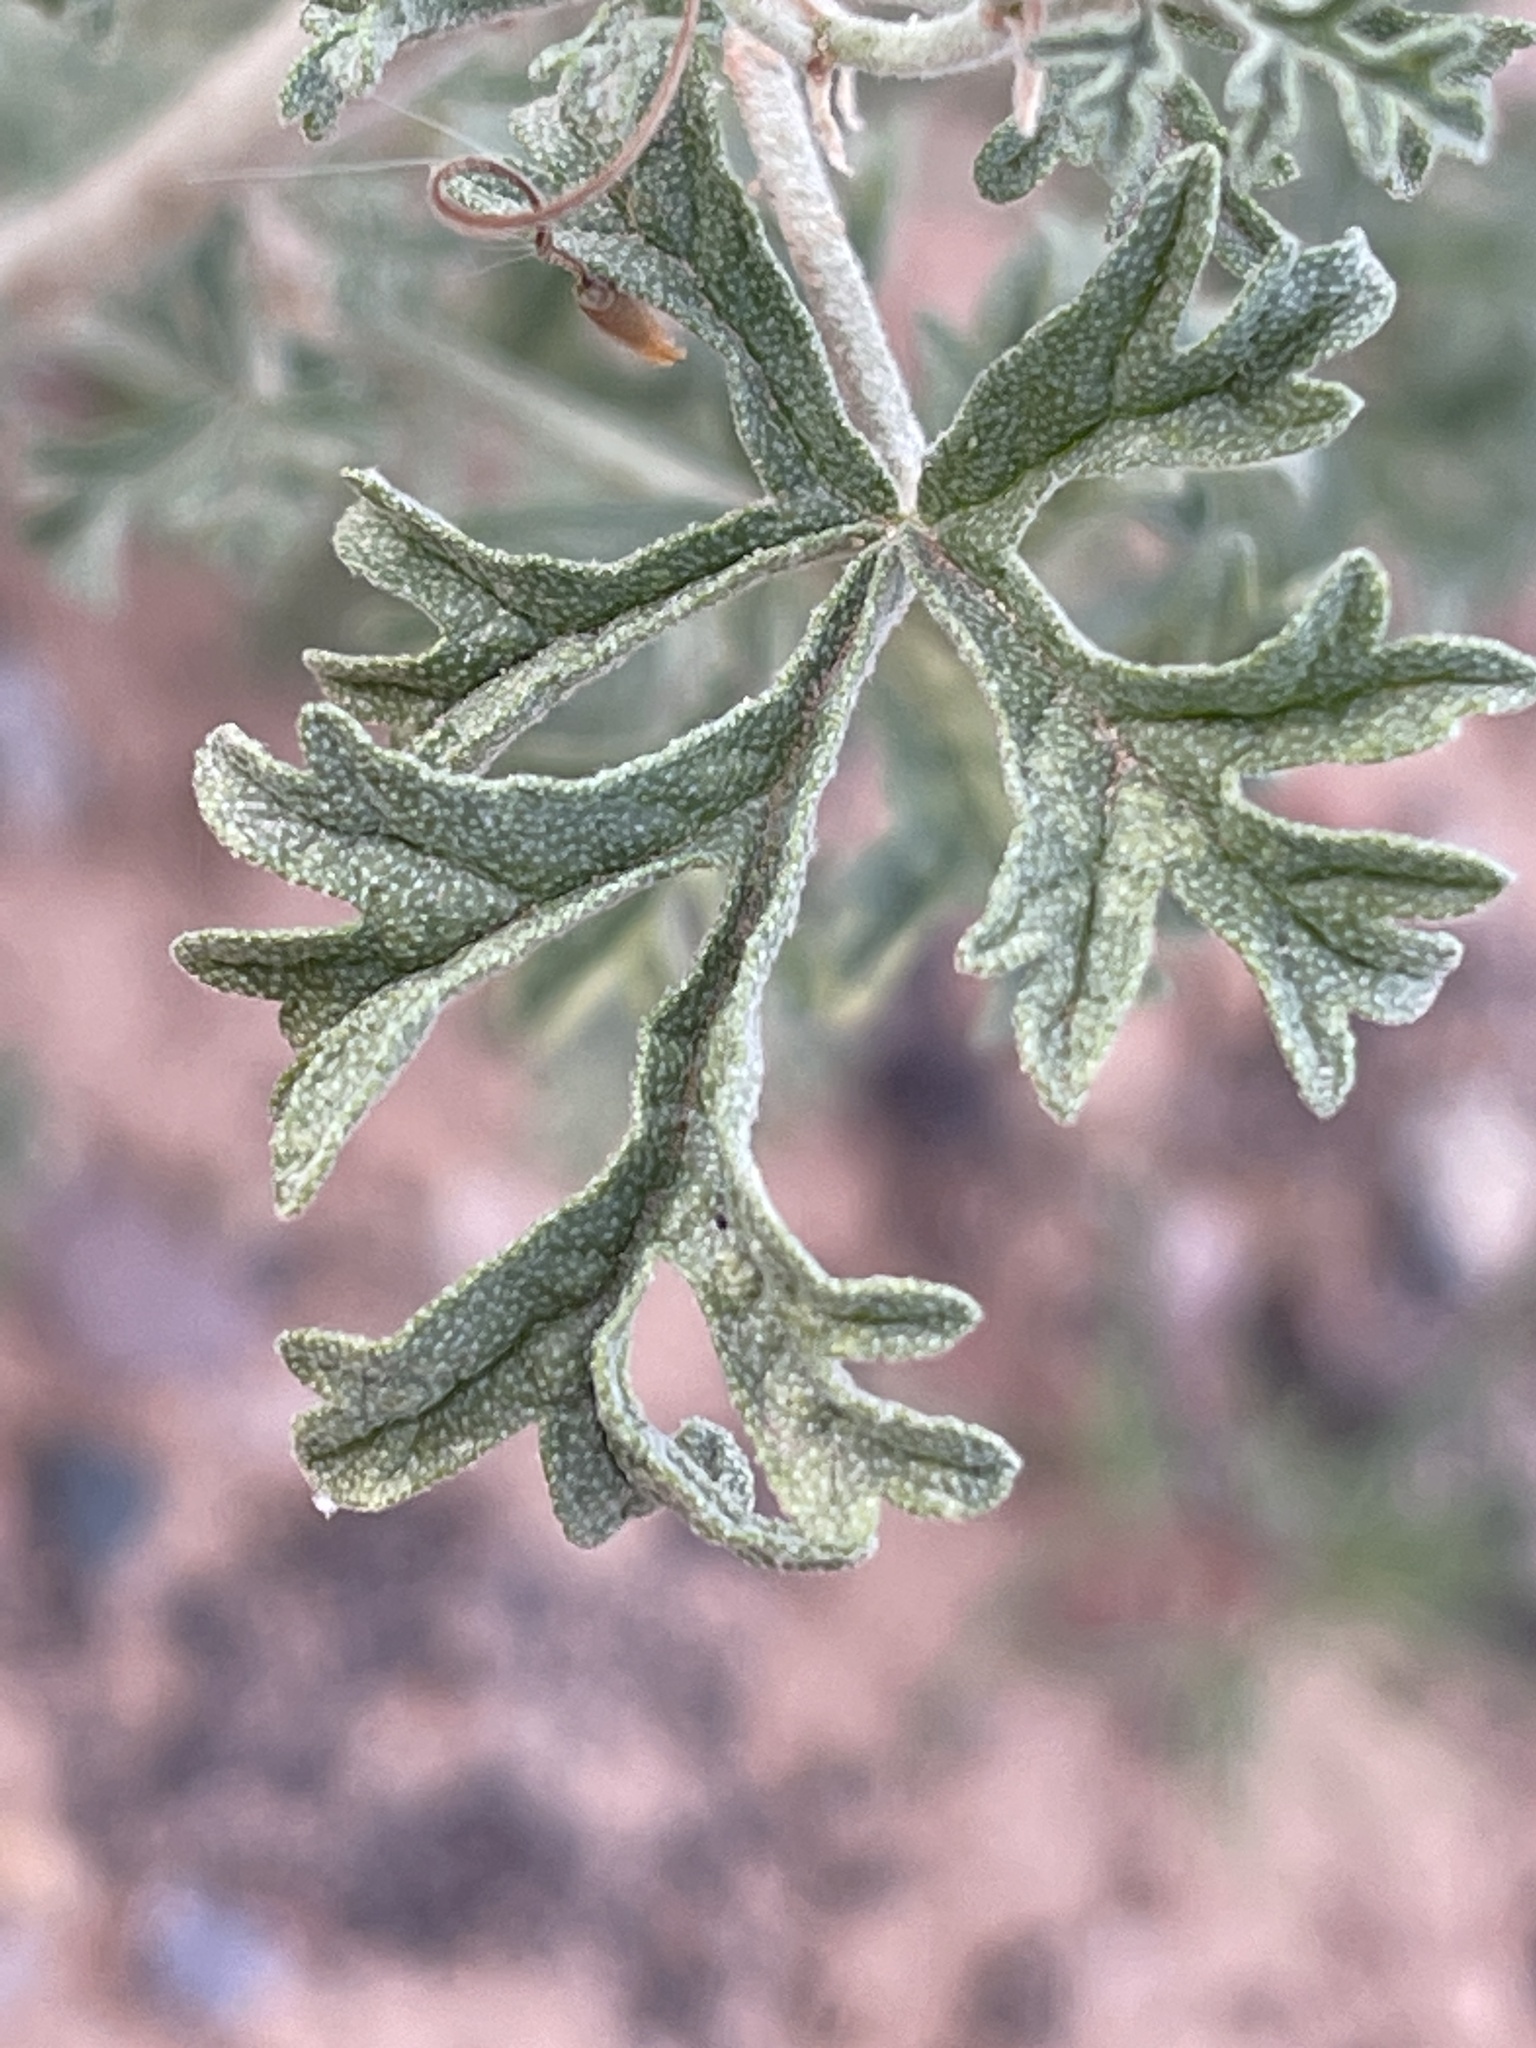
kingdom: Plantae
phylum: Tracheophyta
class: Magnoliopsida
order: Malvales
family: Malvaceae
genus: Sphaeralcea
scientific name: Sphaeralcea grossulariifolia
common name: Current-leaf globe-mallow
